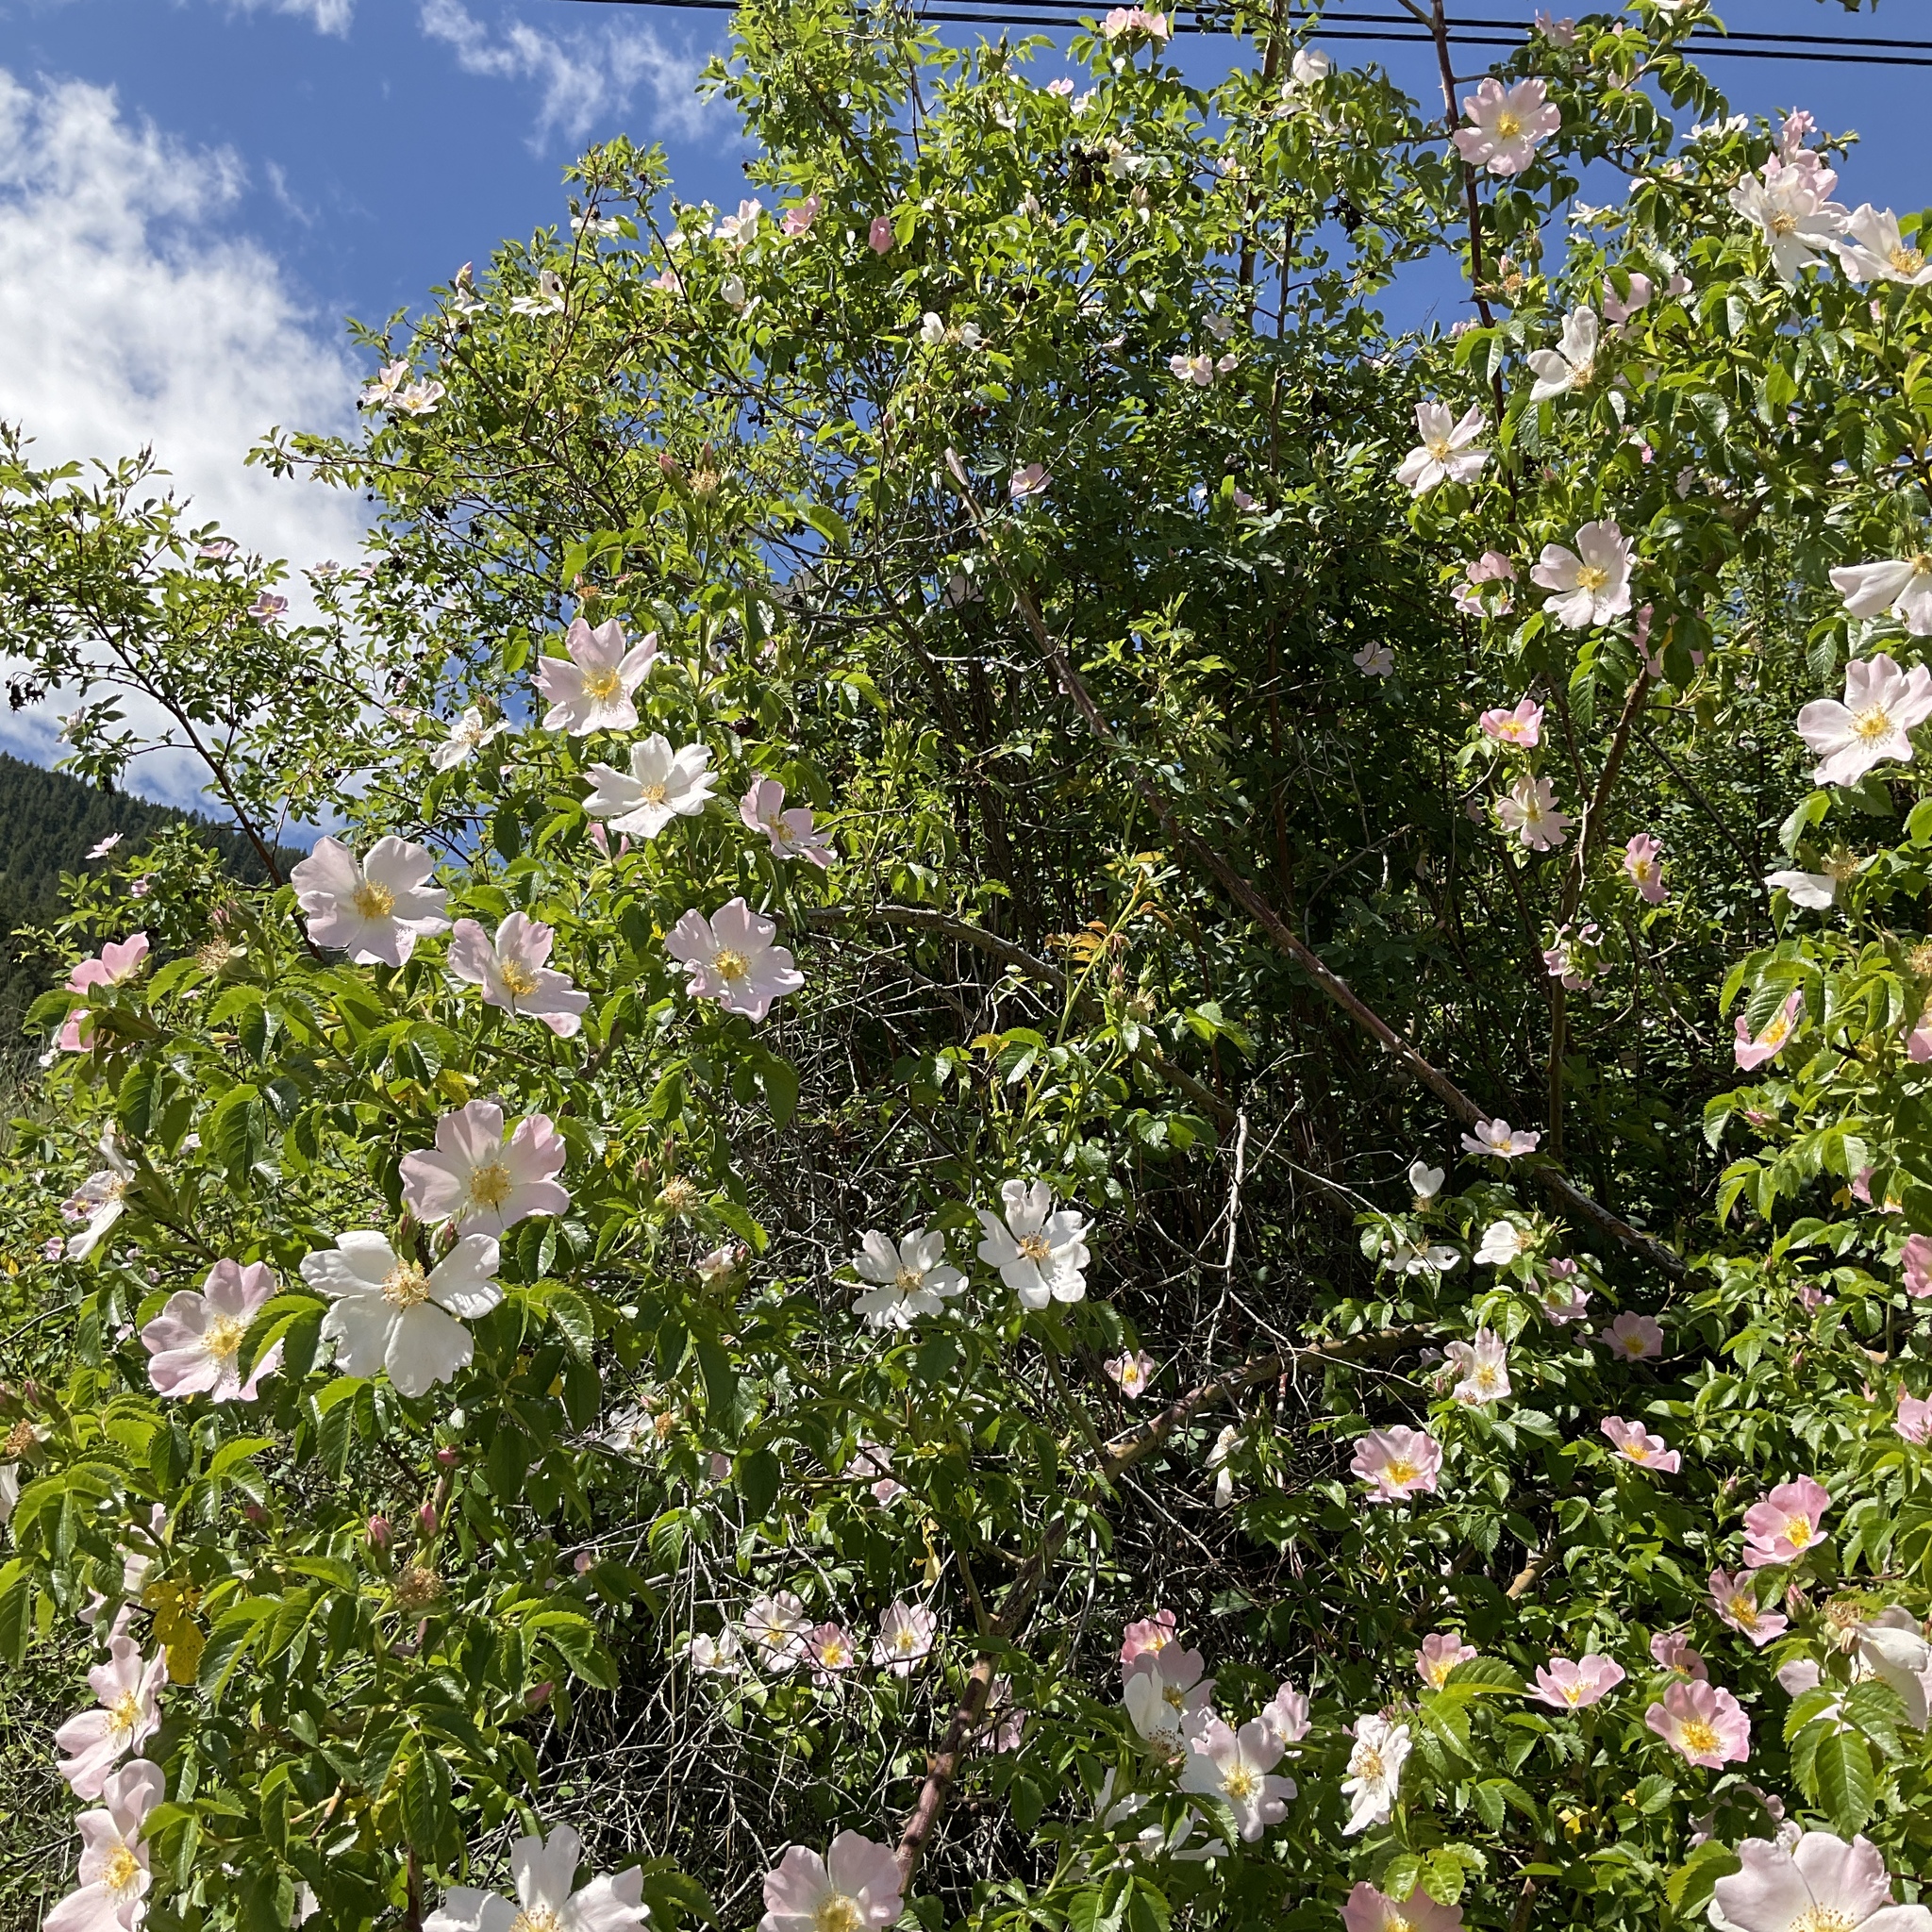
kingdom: Animalia
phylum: Arthropoda
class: Insecta
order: Hymenoptera
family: Apidae
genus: Apis
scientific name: Apis mellifera
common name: Honey bee
